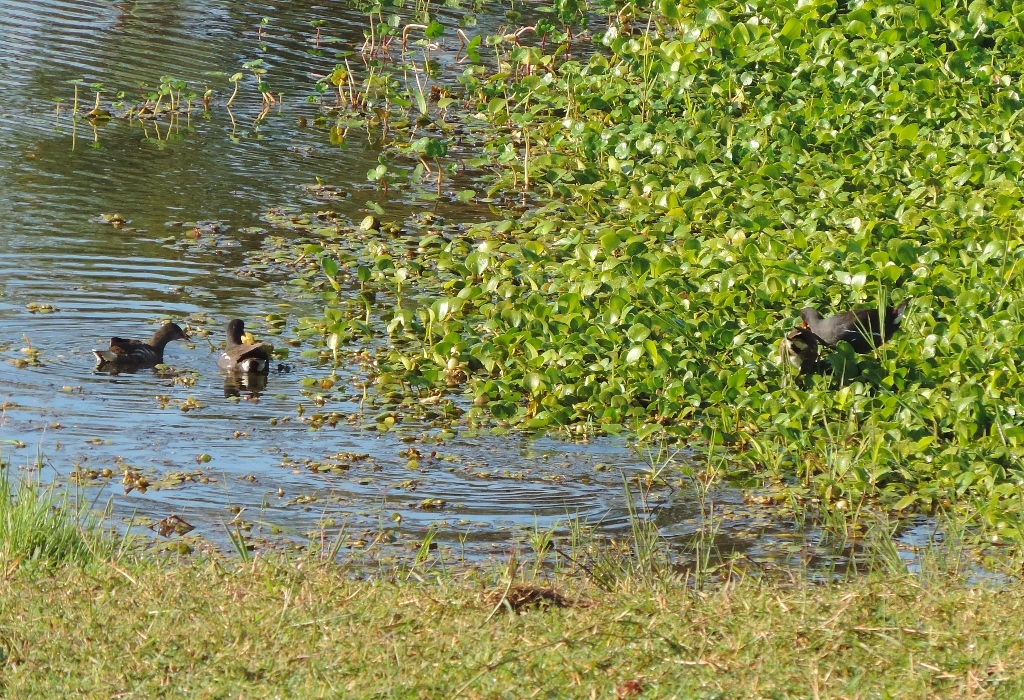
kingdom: Animalia
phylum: Chordata
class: Aves
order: Gruiformes
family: Rallidae
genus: Gallinula
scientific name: Gallinula chloropus
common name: Common moorhen
